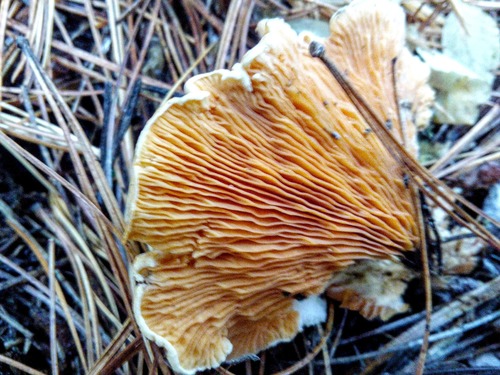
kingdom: Fungi
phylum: Basidiomycota
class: Agaricomycetes
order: Boletales
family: Hygrophoropsidaceae
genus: Hygrophoropsis
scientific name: Hygrophoropsis aurantiaca
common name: False chanterelle
